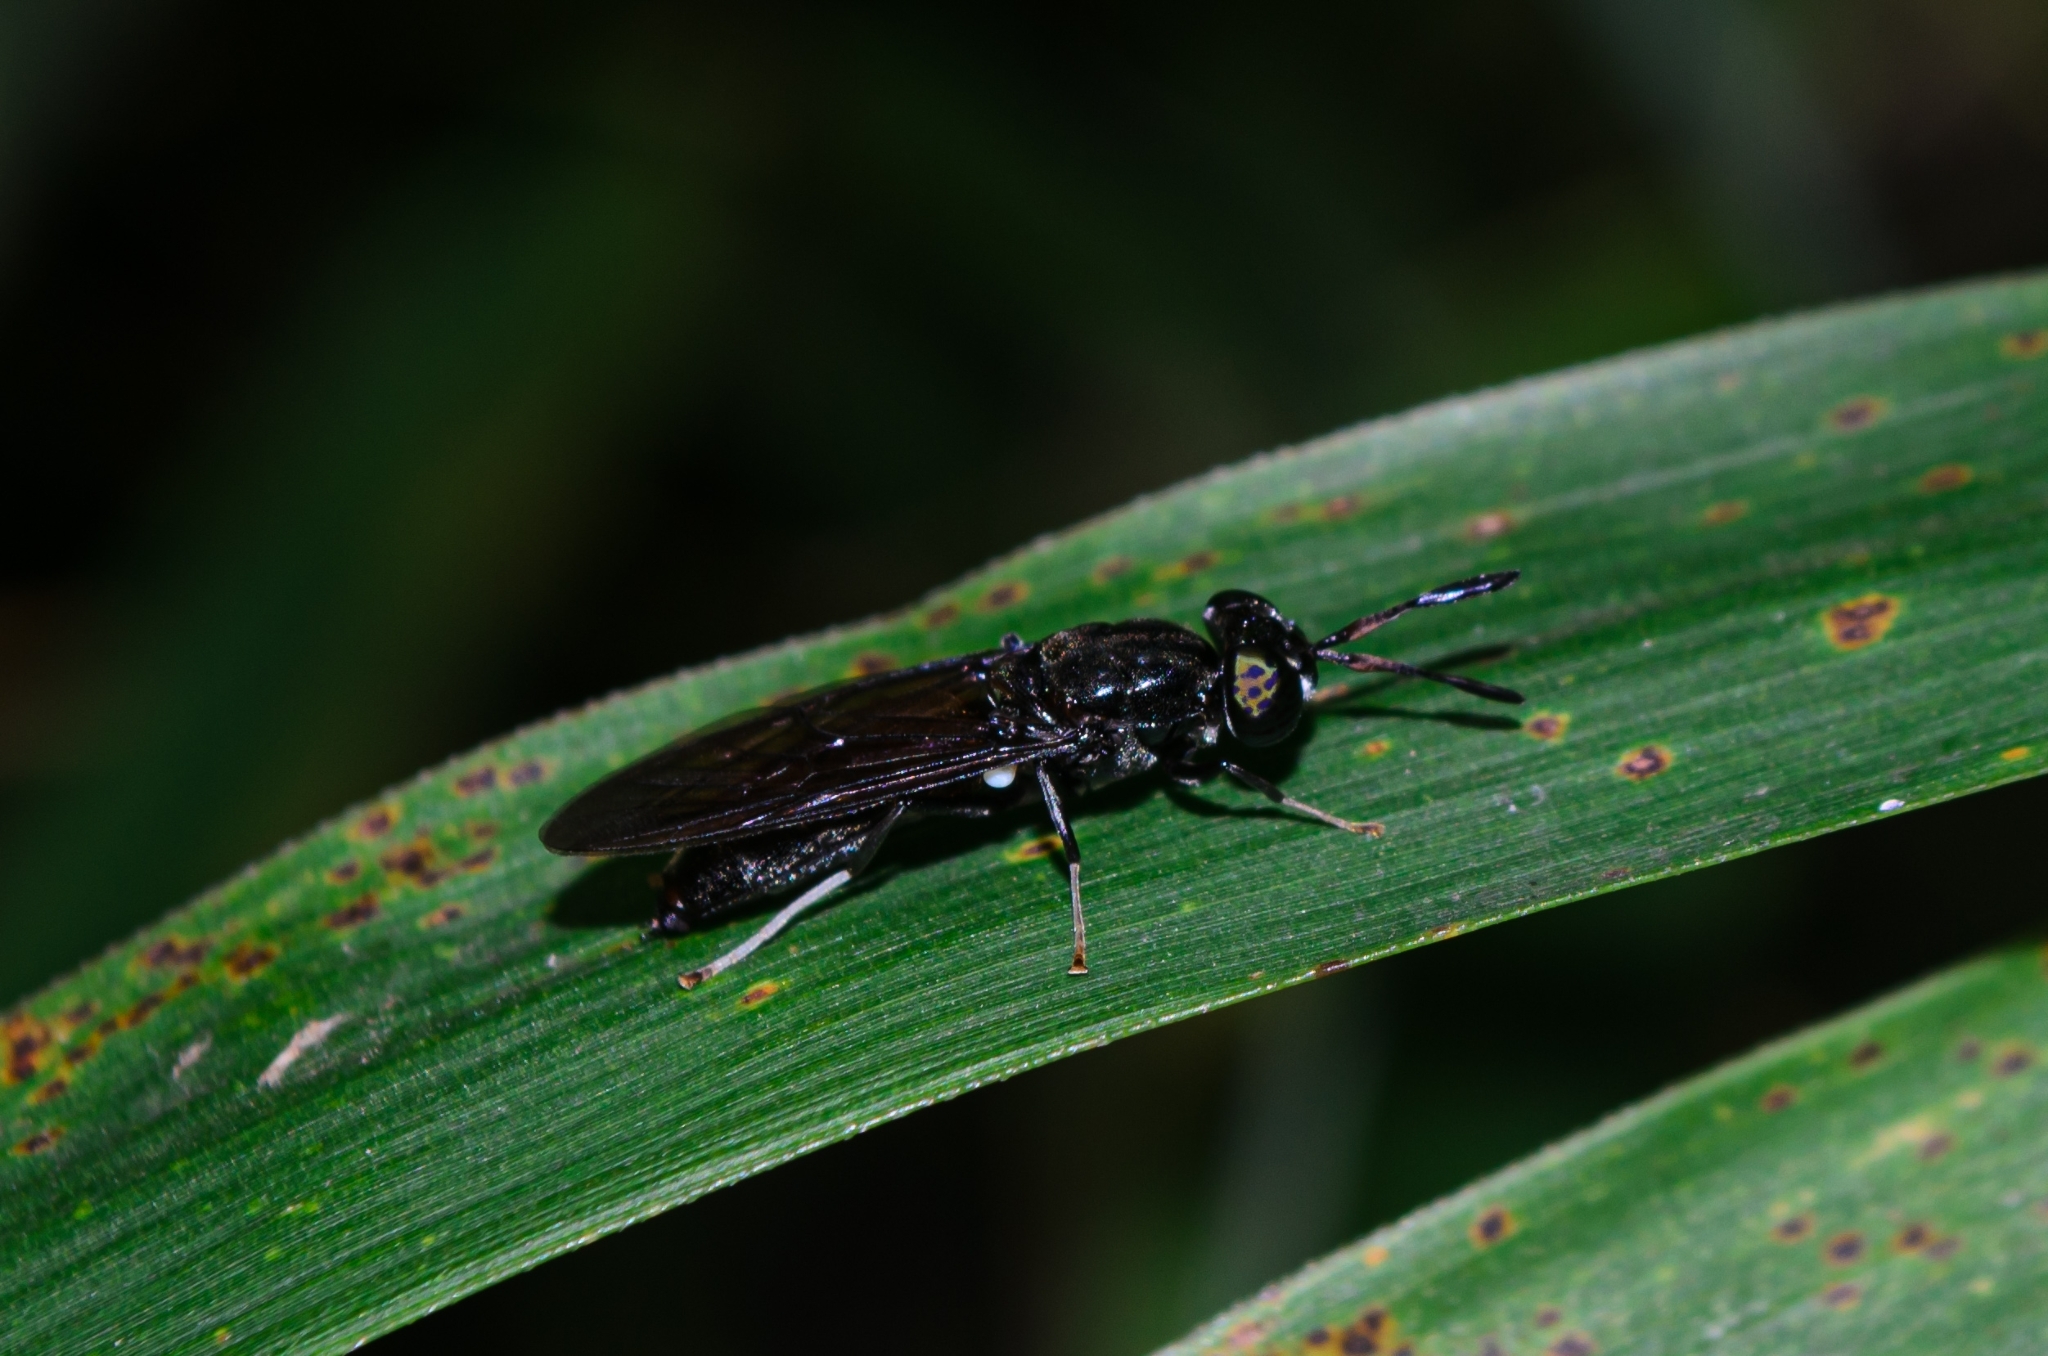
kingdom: Animalia
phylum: Arthropoda
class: Insecta
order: Diptera
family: Stratiomyidae
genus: Hermetia
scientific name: Hermetia illucens
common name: Black soldier fly
